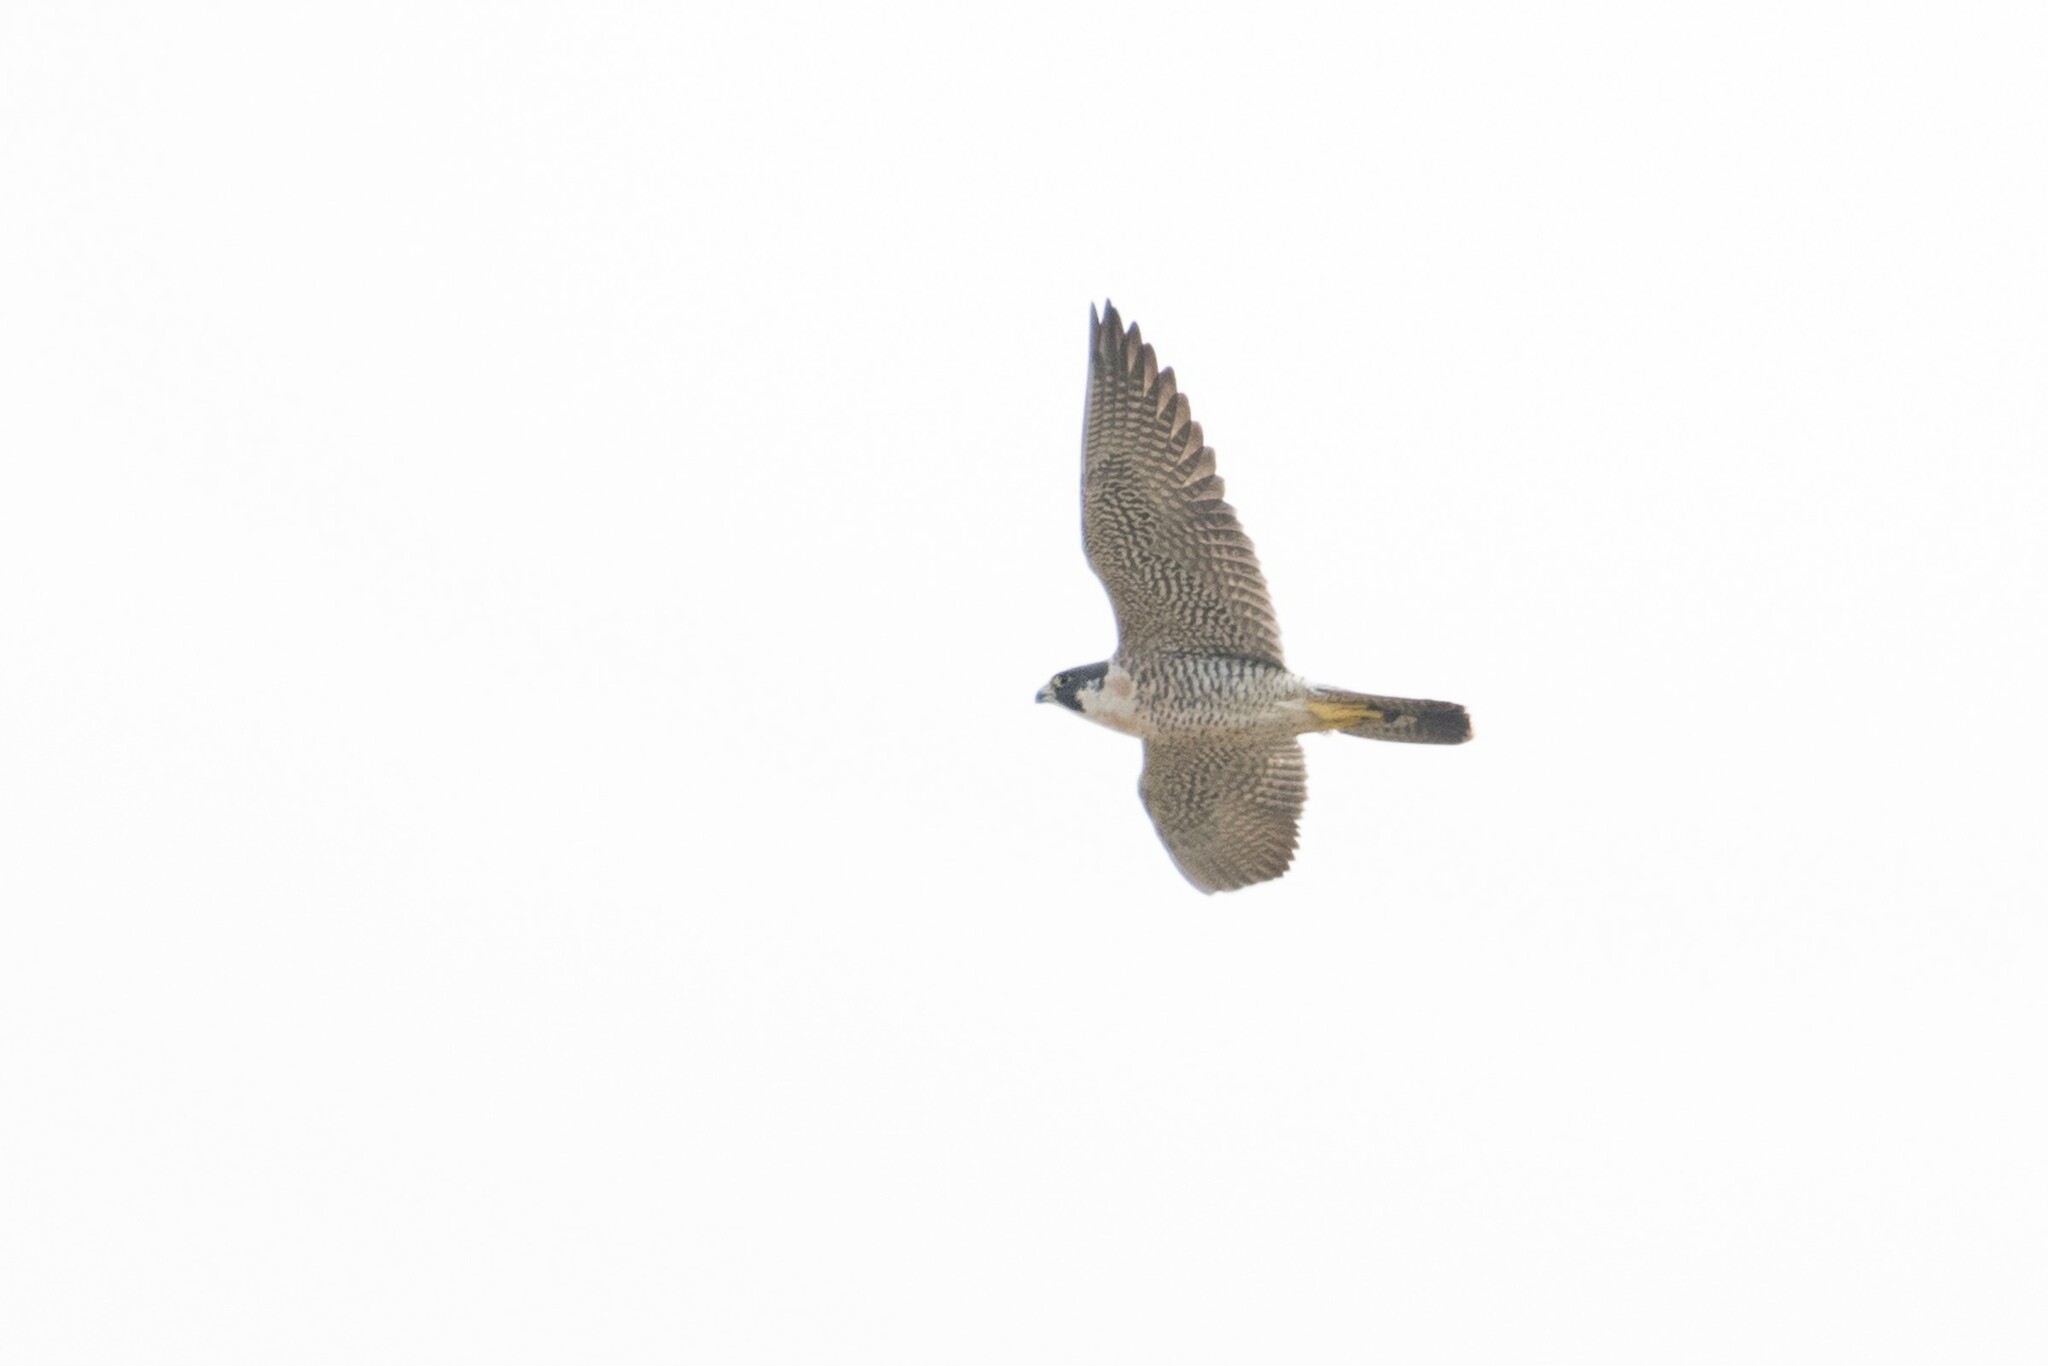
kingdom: Animalia
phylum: Chordata
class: Aves
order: Falconiformes
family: Falconidae
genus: Falco
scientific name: Falco peregrinus
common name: Peregrine falcon
